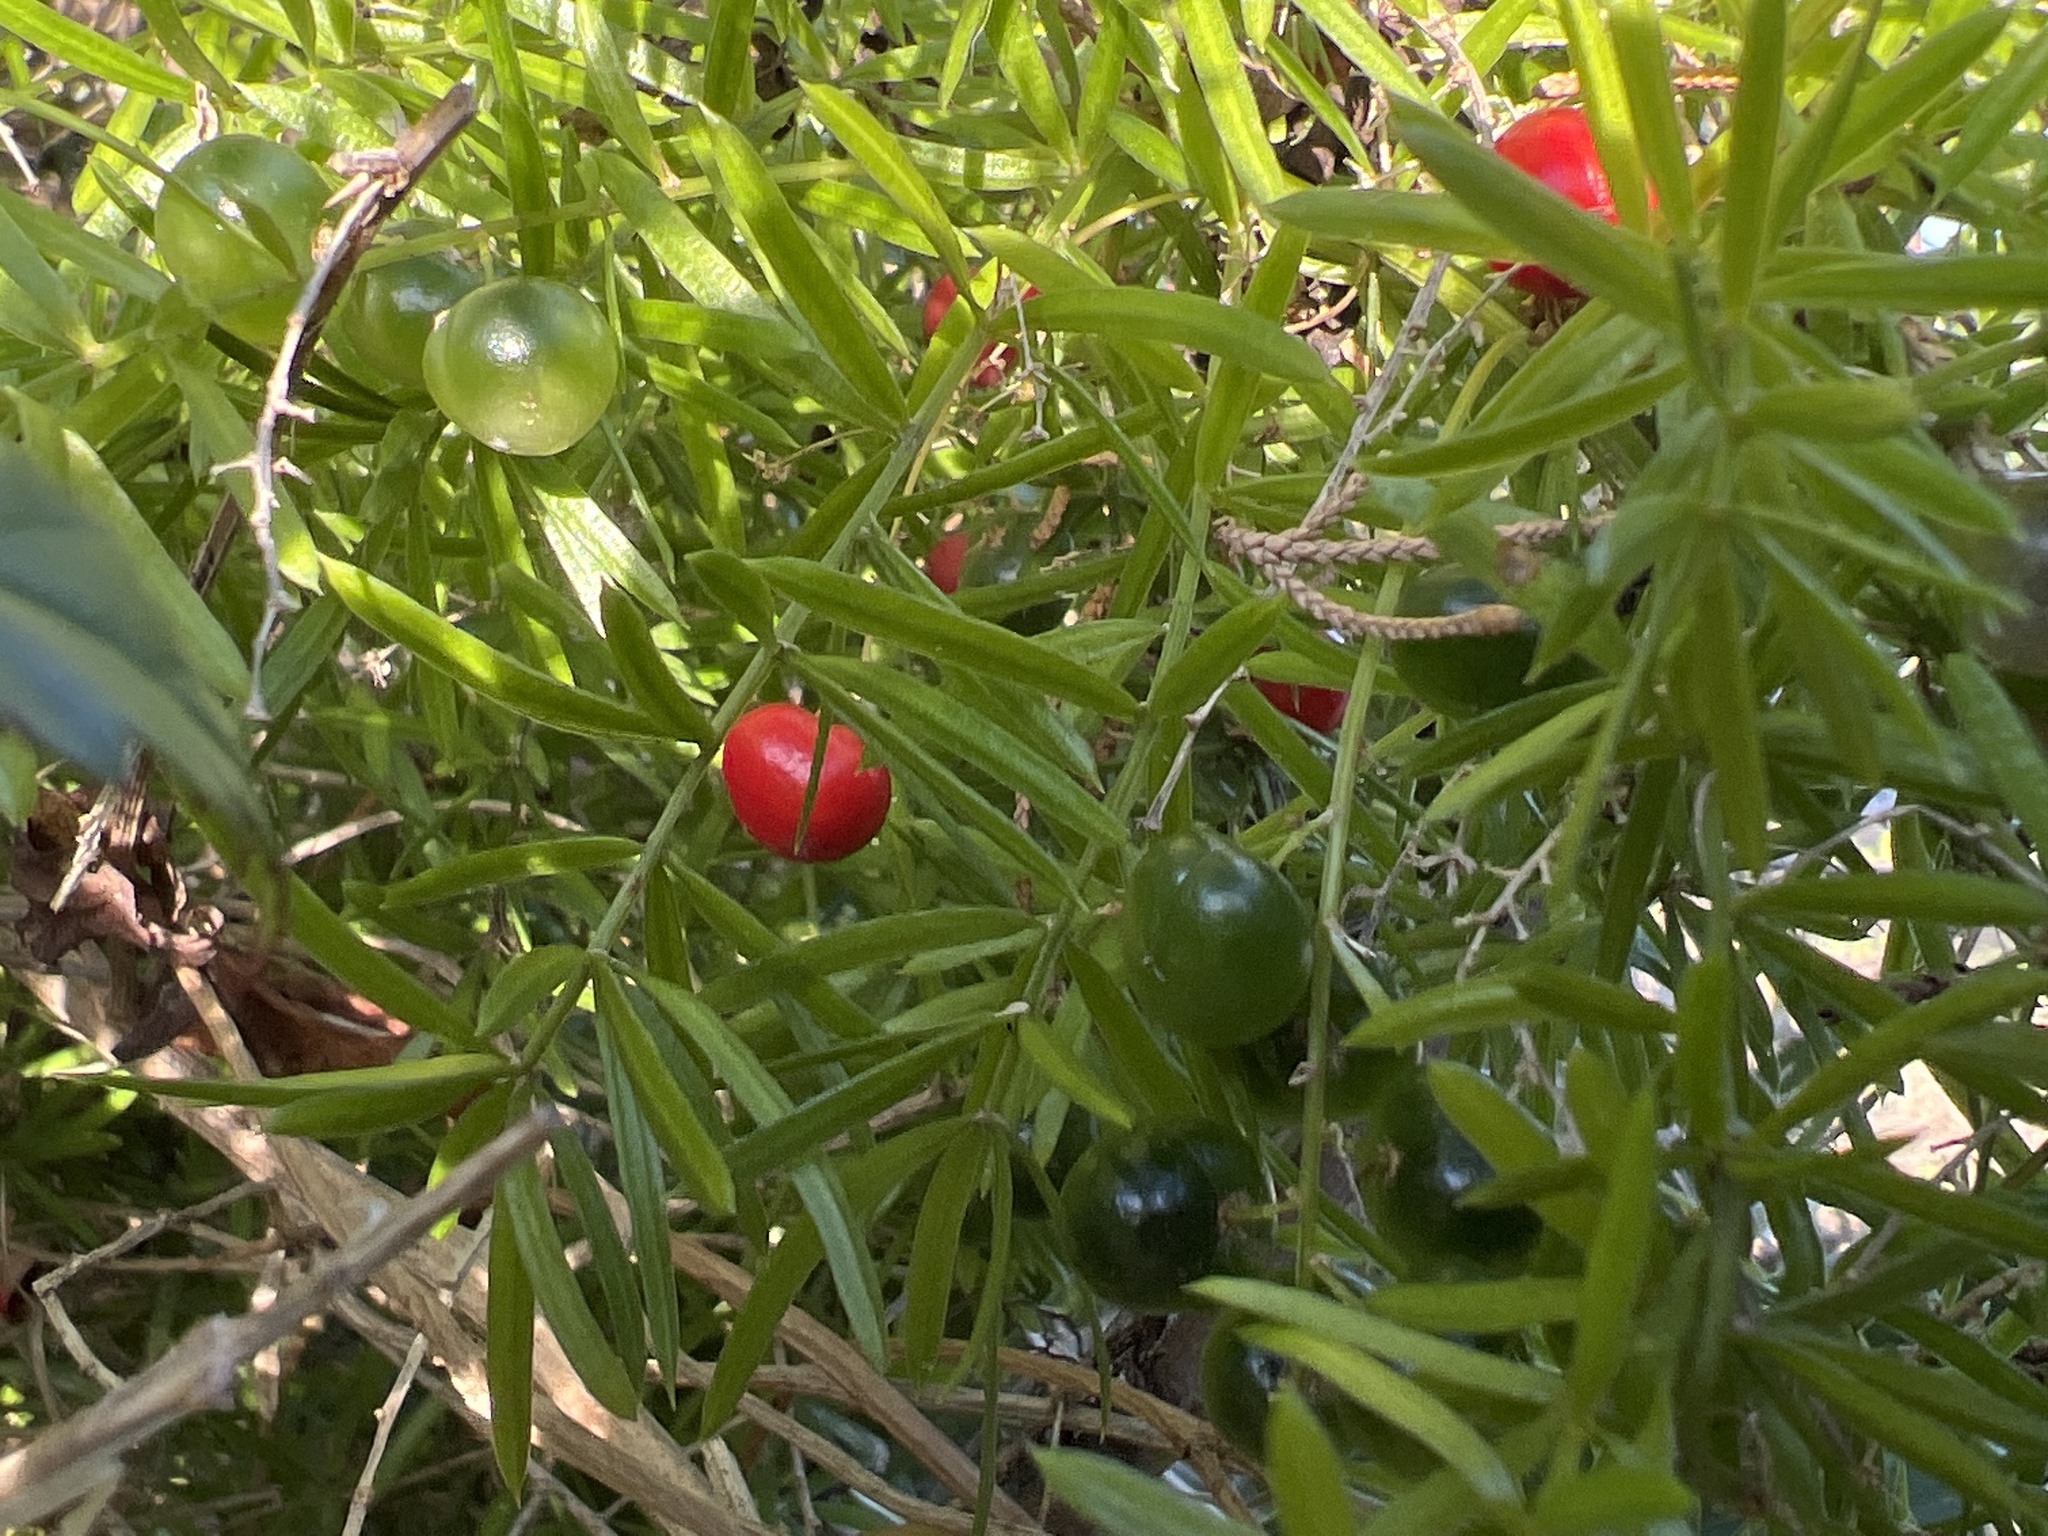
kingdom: Plantae
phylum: Tracheophyta
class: Liliopsida
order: Asparagales
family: Asparagaceae
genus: Asparagus
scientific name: Asparagus aethiopicus
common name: Sprenger's asparagus fern
